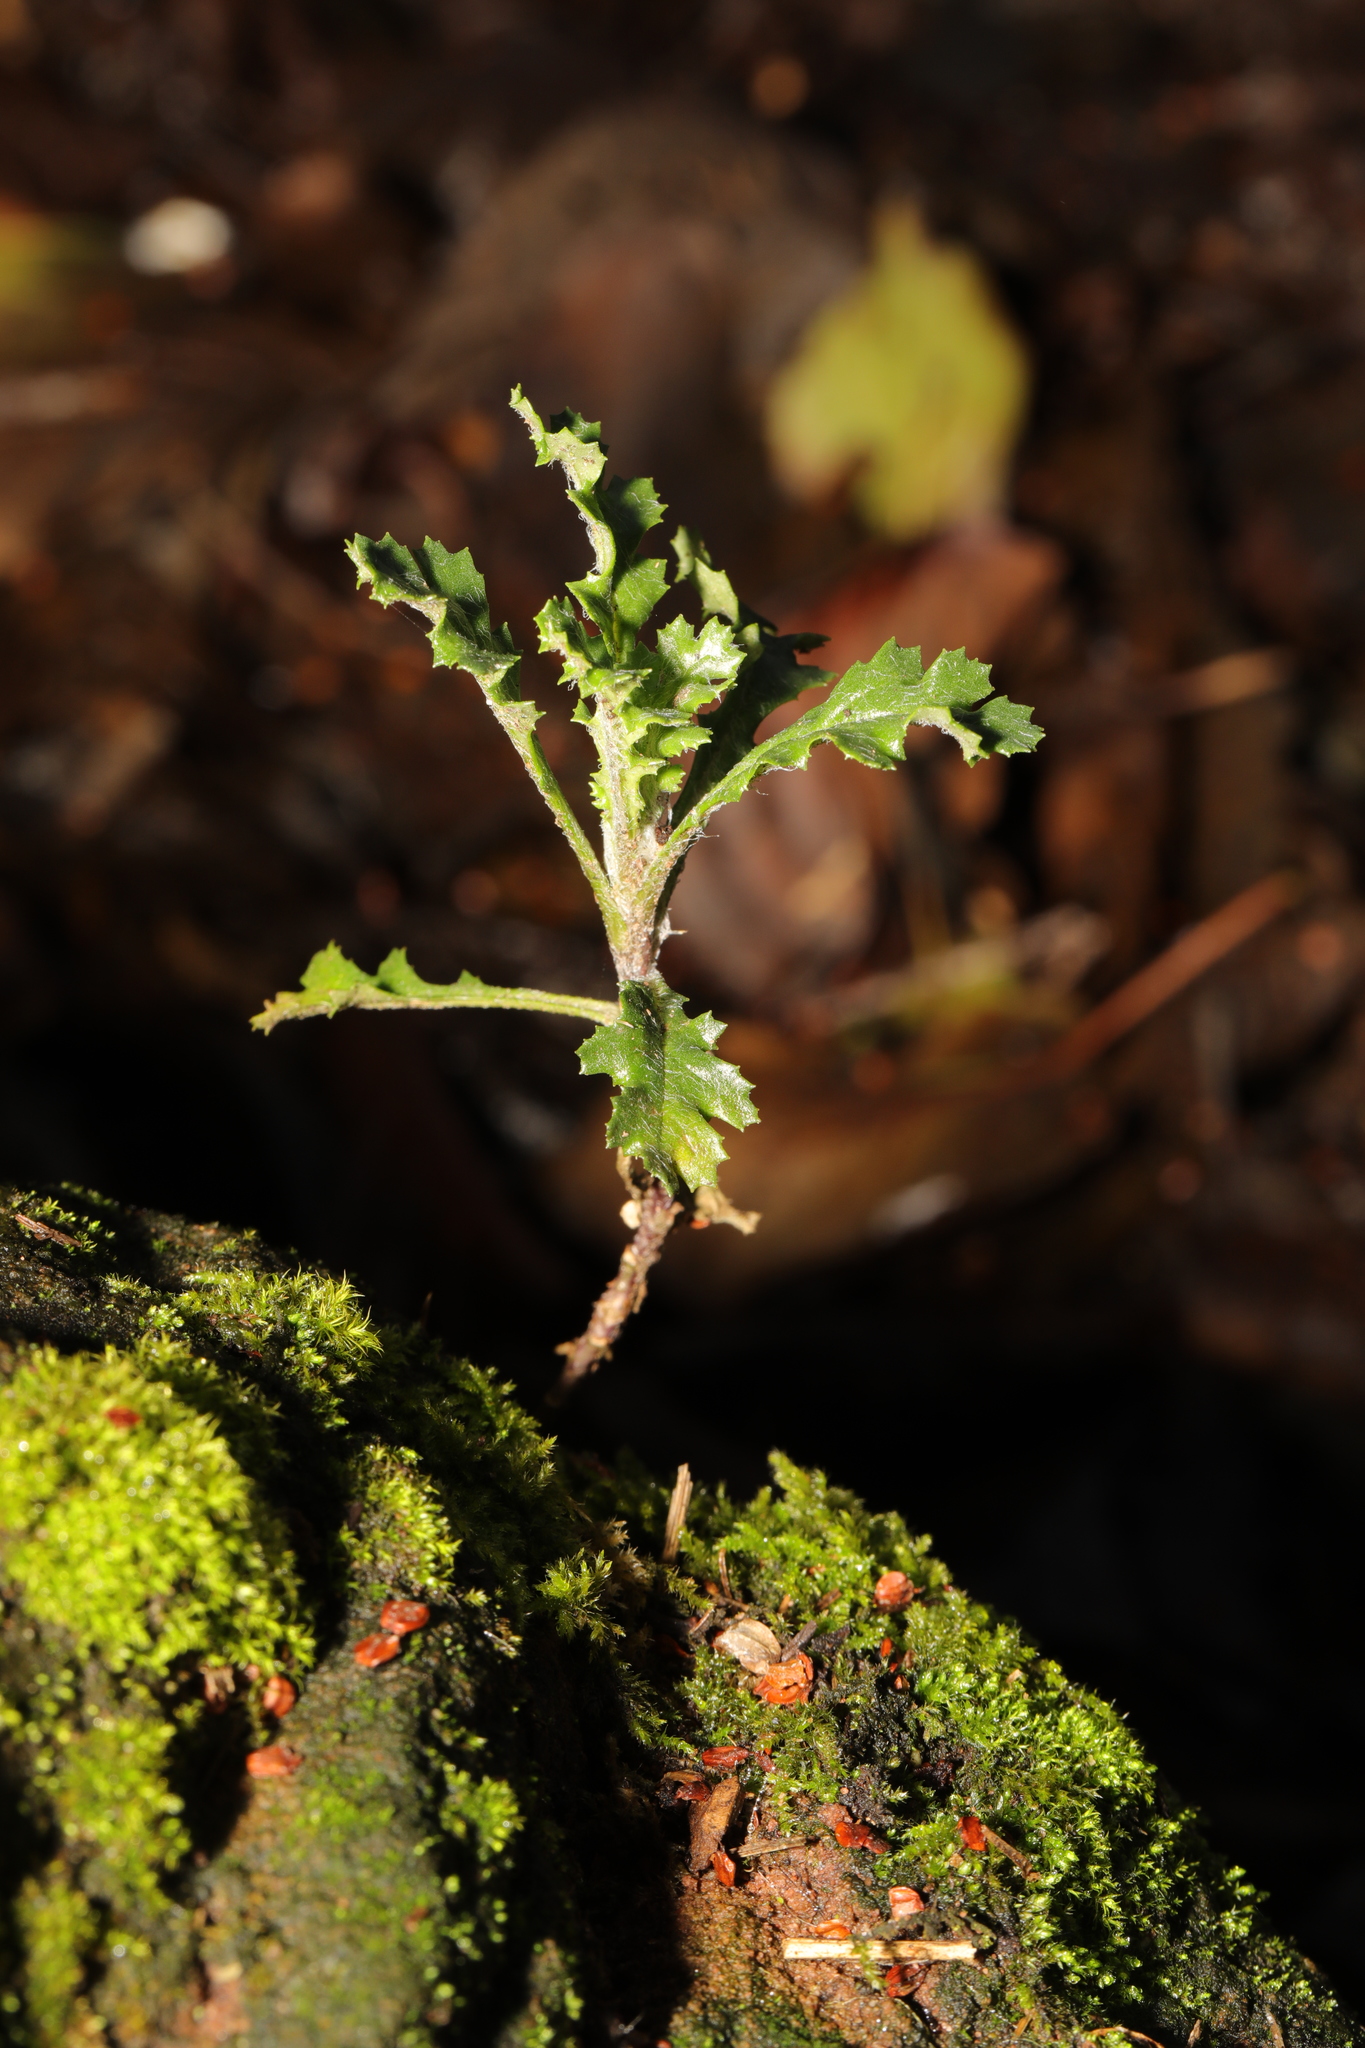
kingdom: Plantae
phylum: Tracheophyta
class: Magnoliopsida
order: Asterales
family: Asteraceae
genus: Senecio
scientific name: Senecio vulgaris
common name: Old-man-in-the-spring
